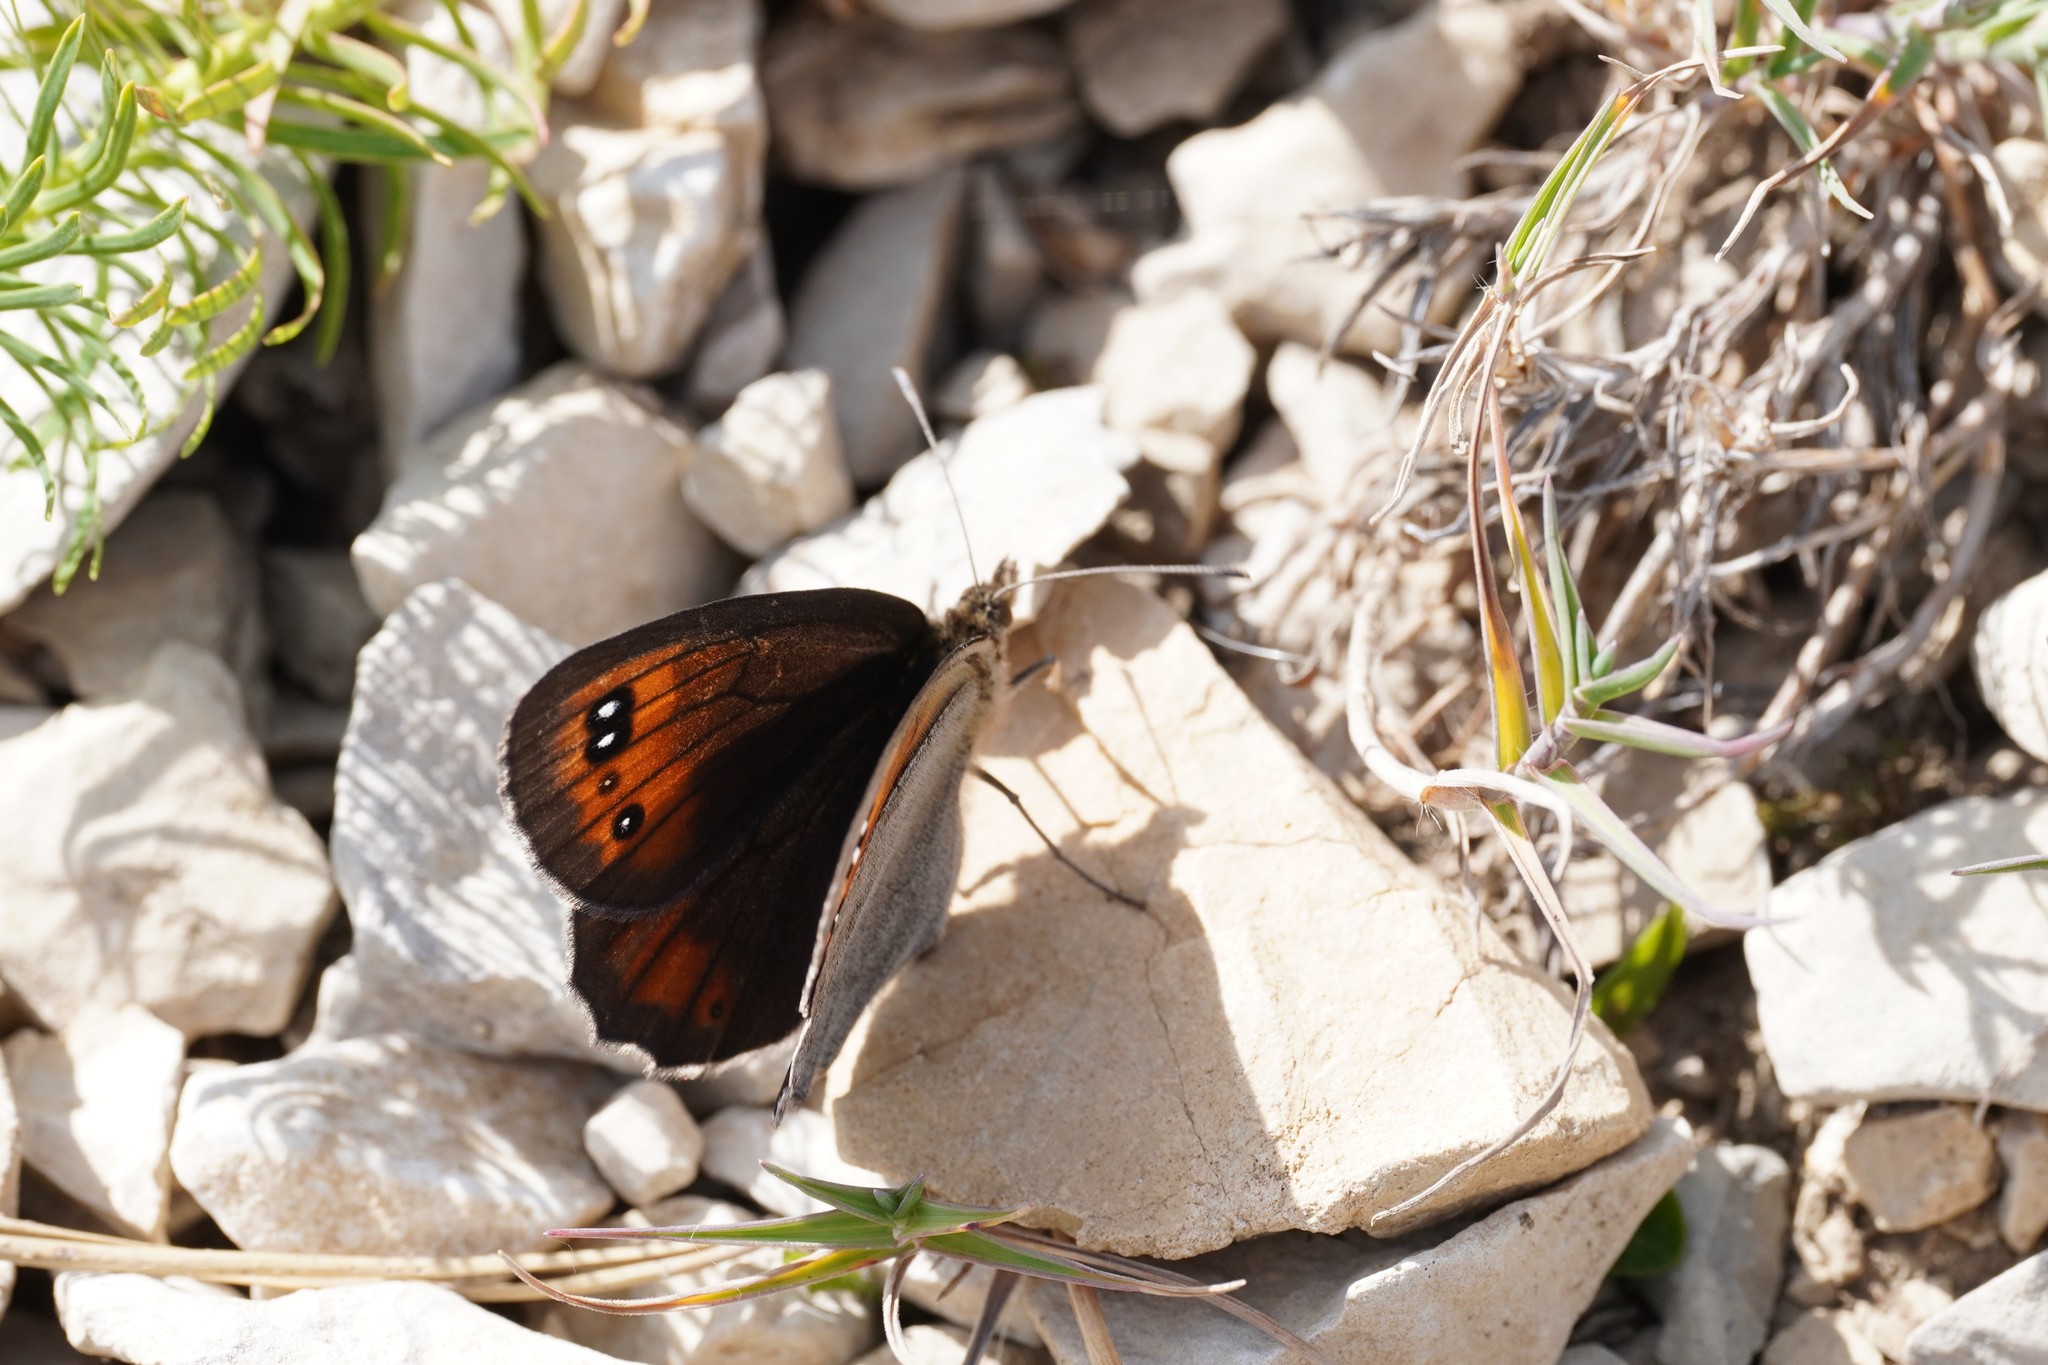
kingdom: Animalia
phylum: Arthropoda
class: Insecta
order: Lepidoptera
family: Nymphalidae
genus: Erebia
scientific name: Erebia scipio
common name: Larche ringlet
